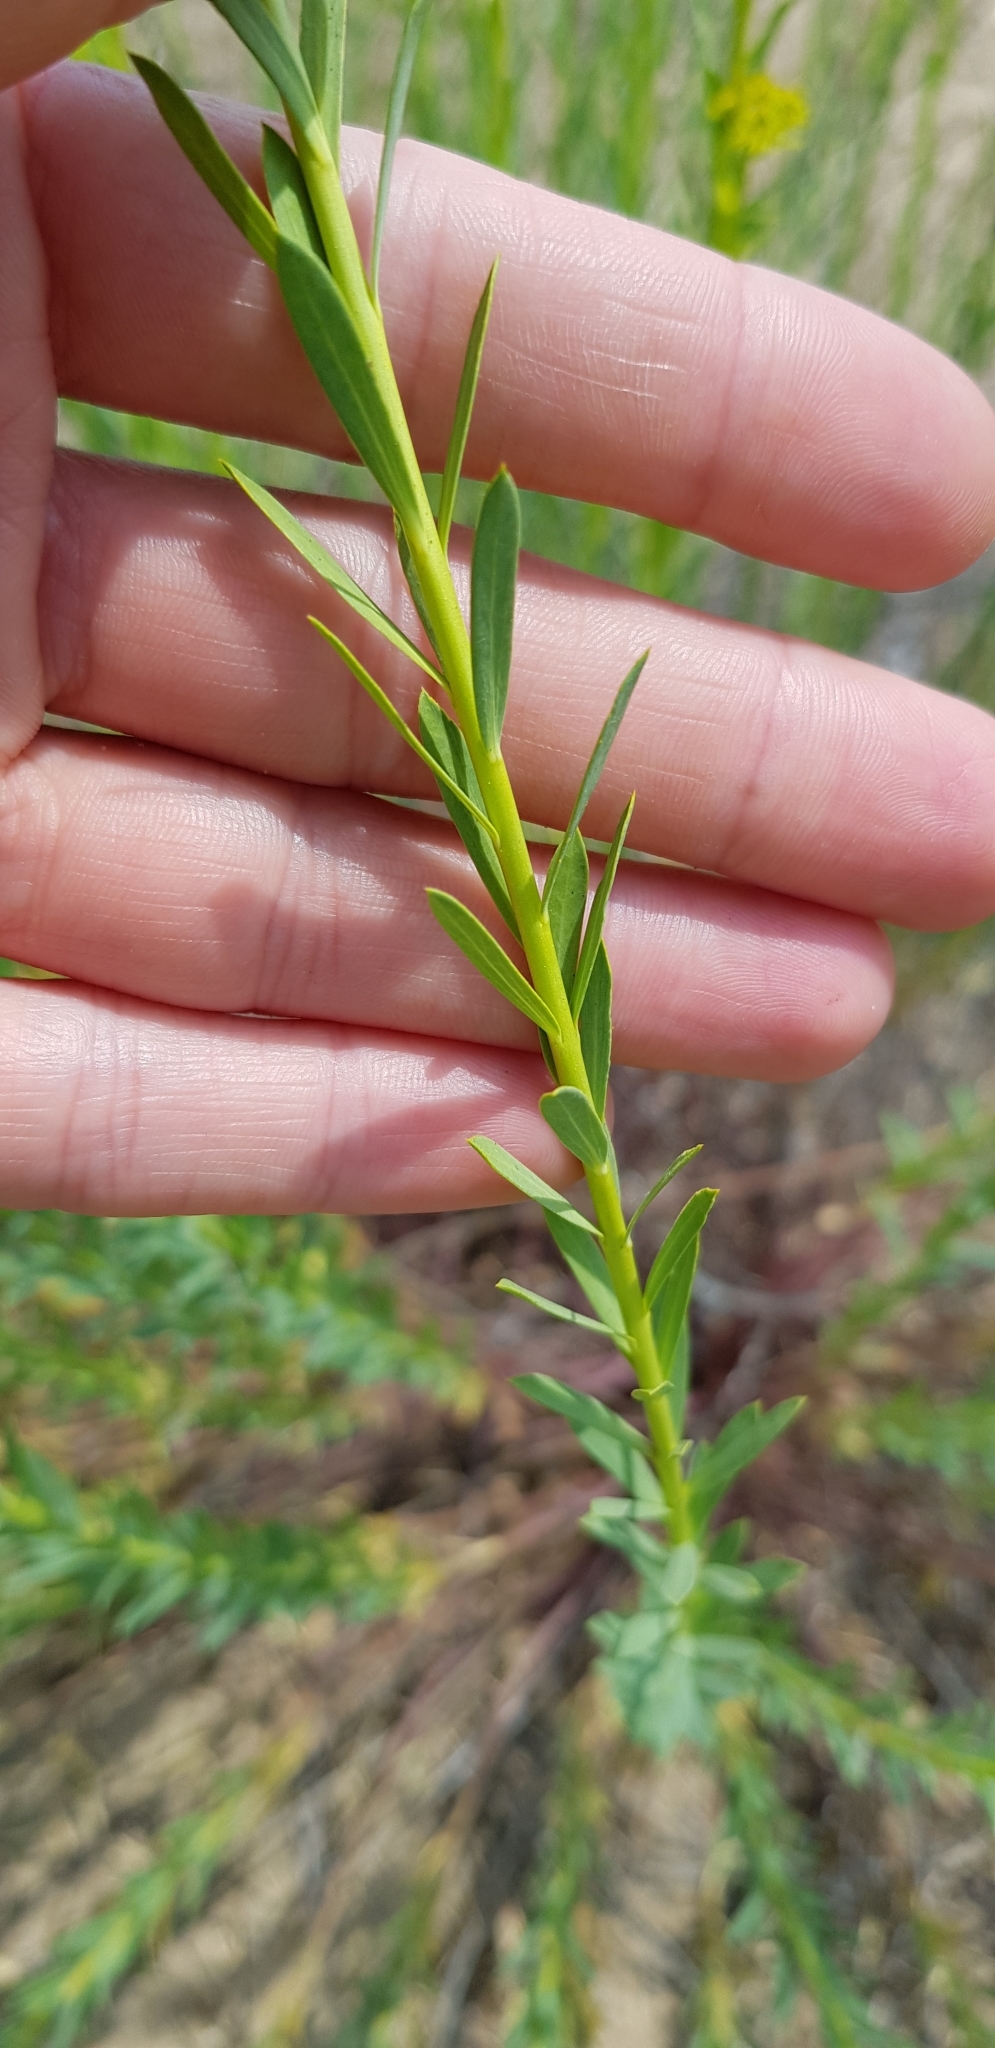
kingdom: Plantae
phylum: Tracheophyta
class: Magnoliopsida
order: Malpighiales
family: Euphorbiaceae
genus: Euphorbia
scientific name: Euphorbia seguieriana
